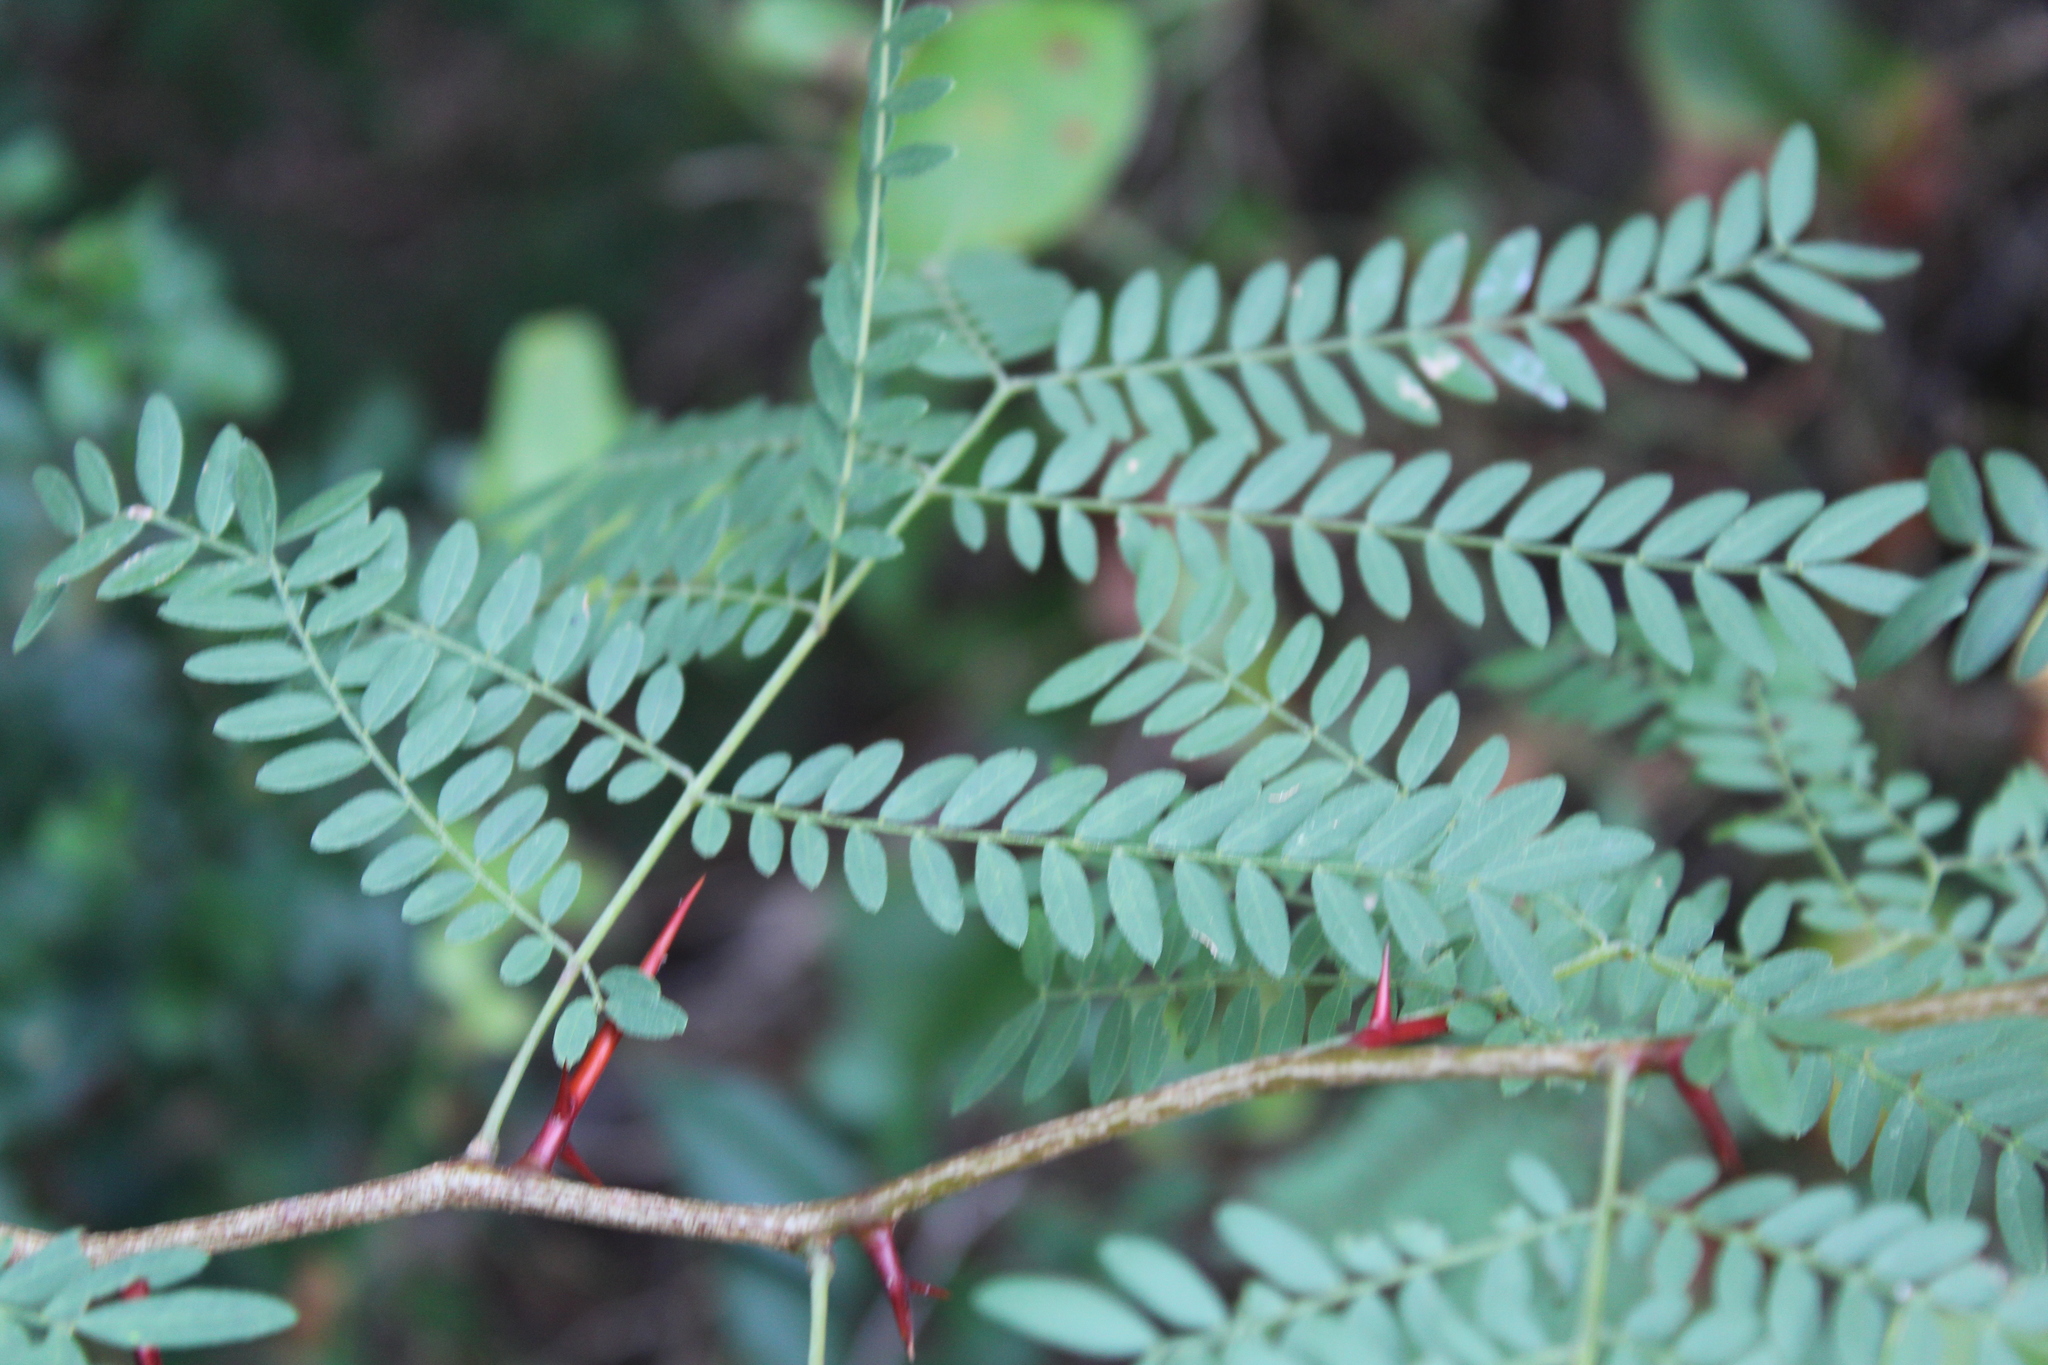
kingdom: Plantae
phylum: Tracheophyta
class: Magnoliopsida
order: Fabales
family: Fabaceae
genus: Gleditsia
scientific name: Gleditsia triacanthos
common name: Common honeylocust
